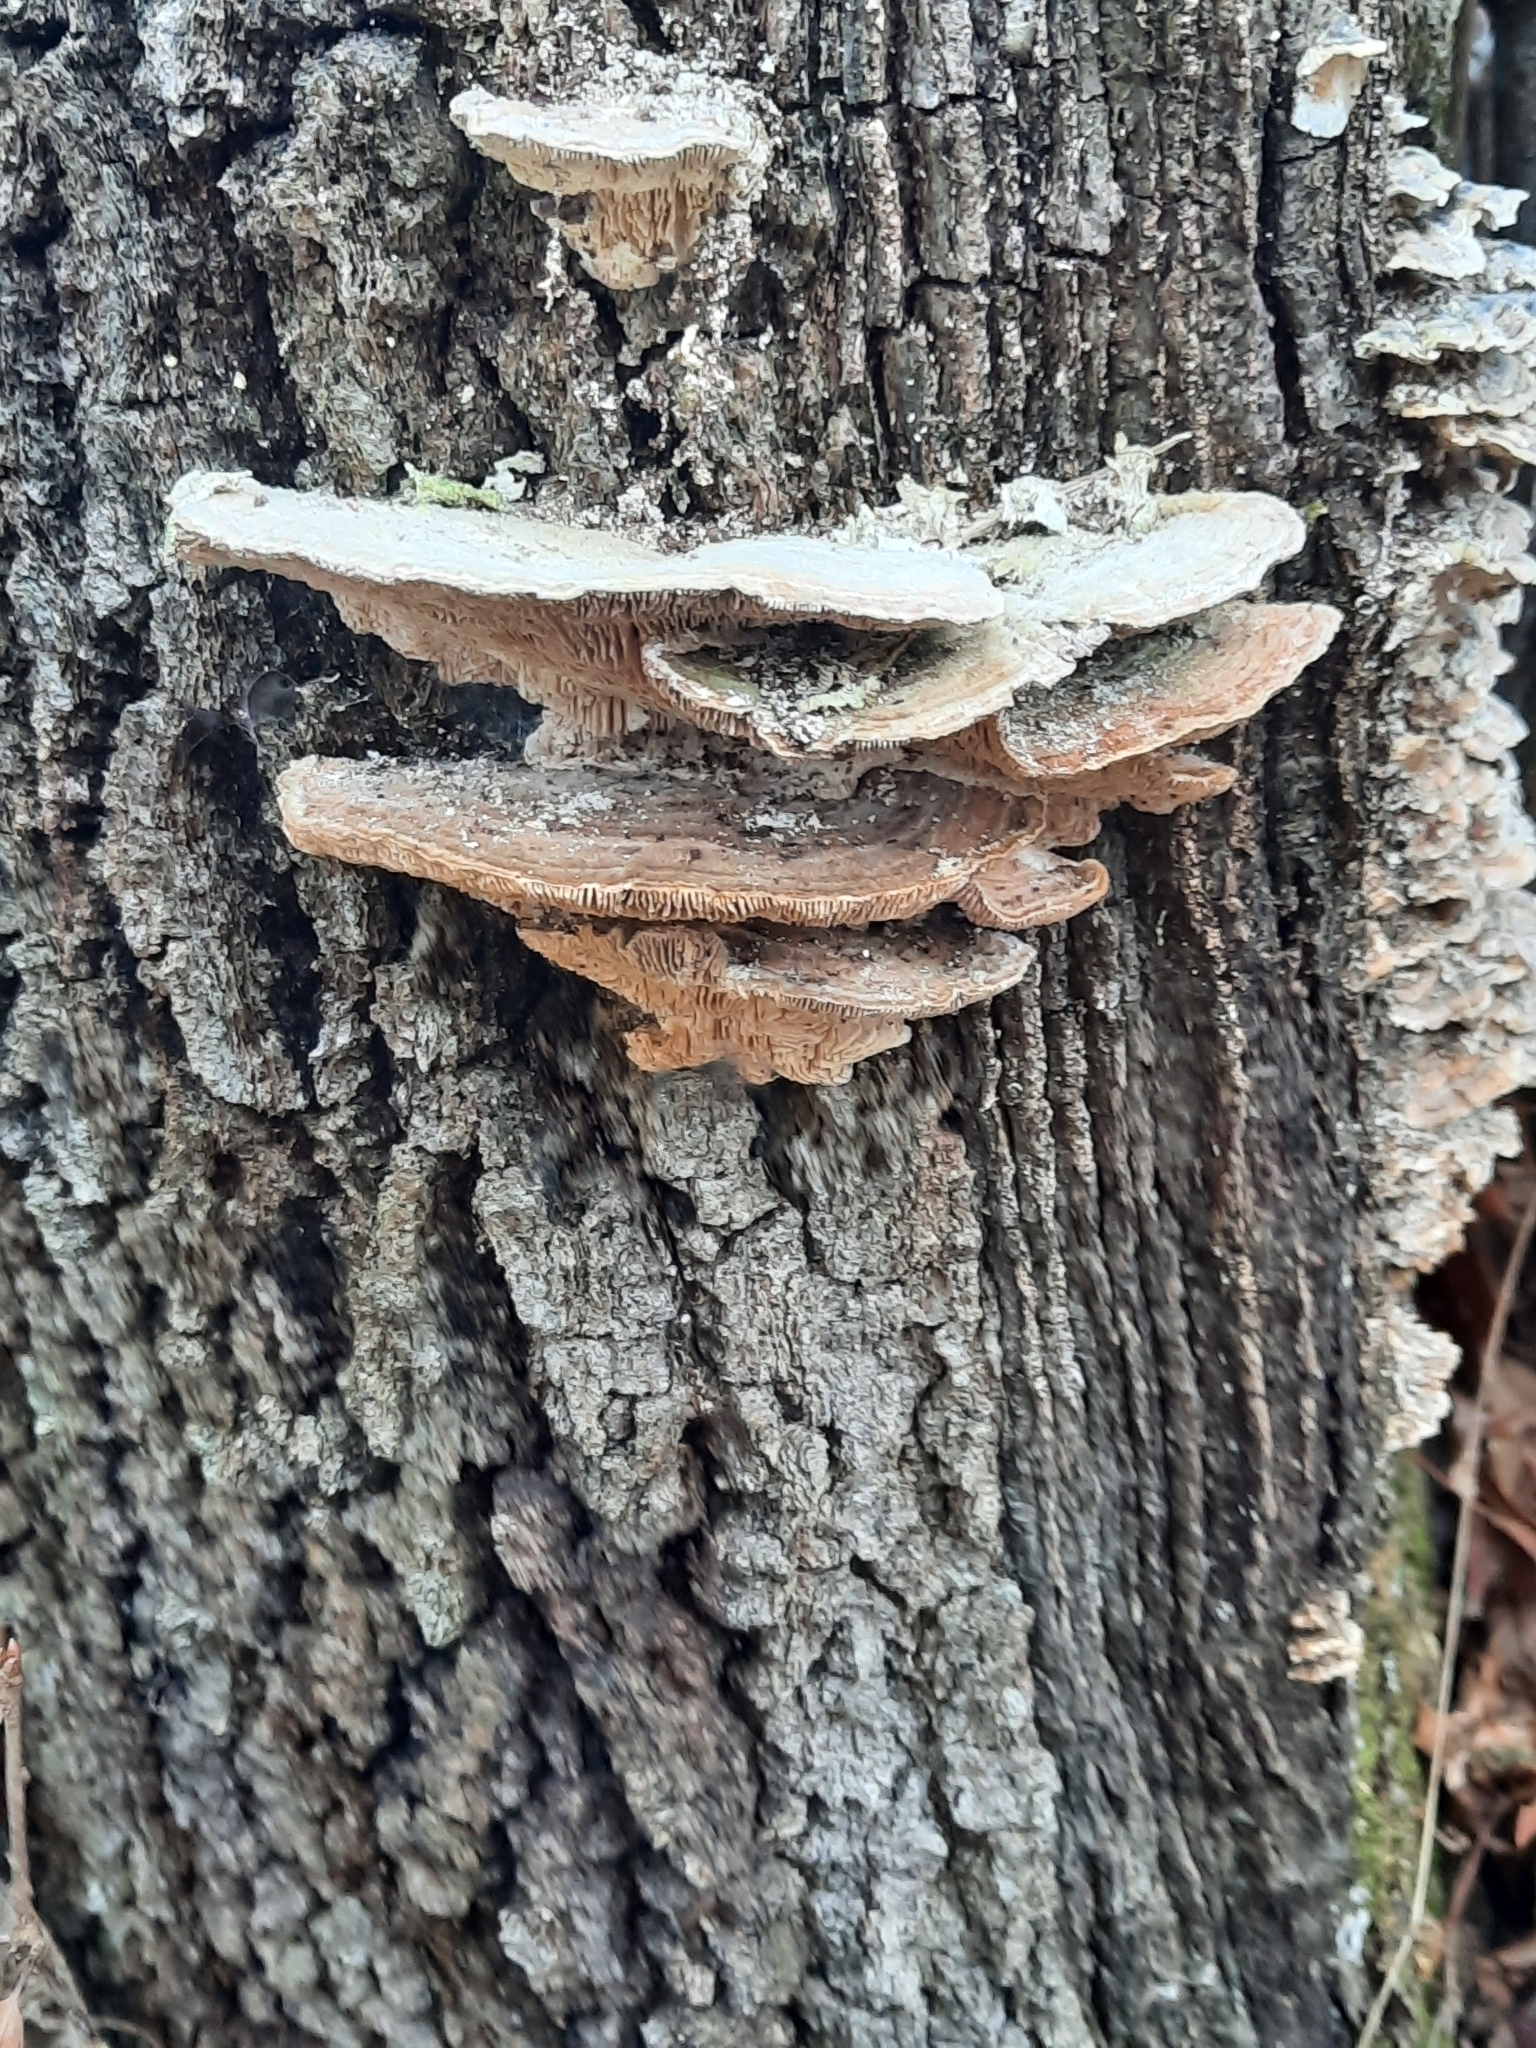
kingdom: Fungi
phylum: Basidiomycota
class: Agaricomycetes
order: Polyporales
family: Polyporaceae
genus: Lenzites
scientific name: Lenzites betulinus
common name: Birch mazegill
